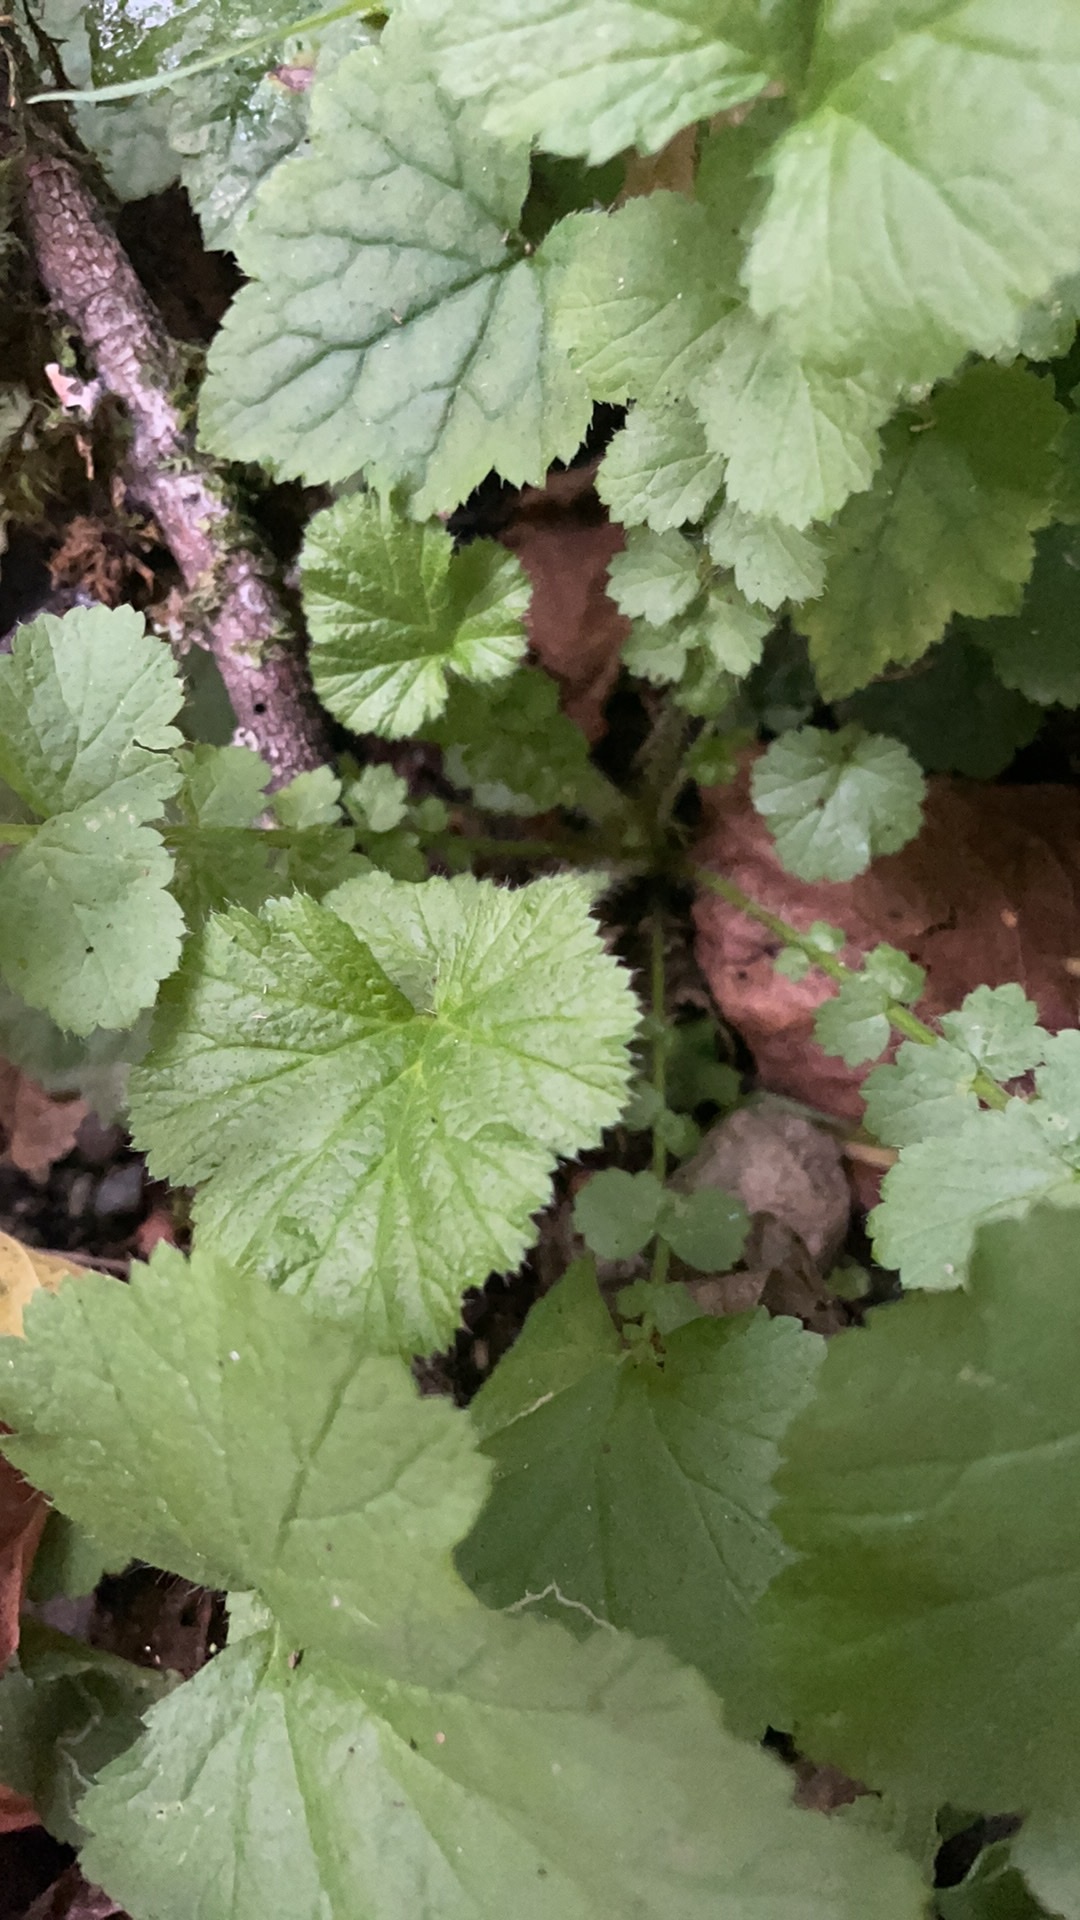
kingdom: Plantae
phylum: Tracheophyta
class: Magnoliopsida
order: Rosales
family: Rosaceae
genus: Geum
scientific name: Geum macrophyllum
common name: Large-leaved avens
